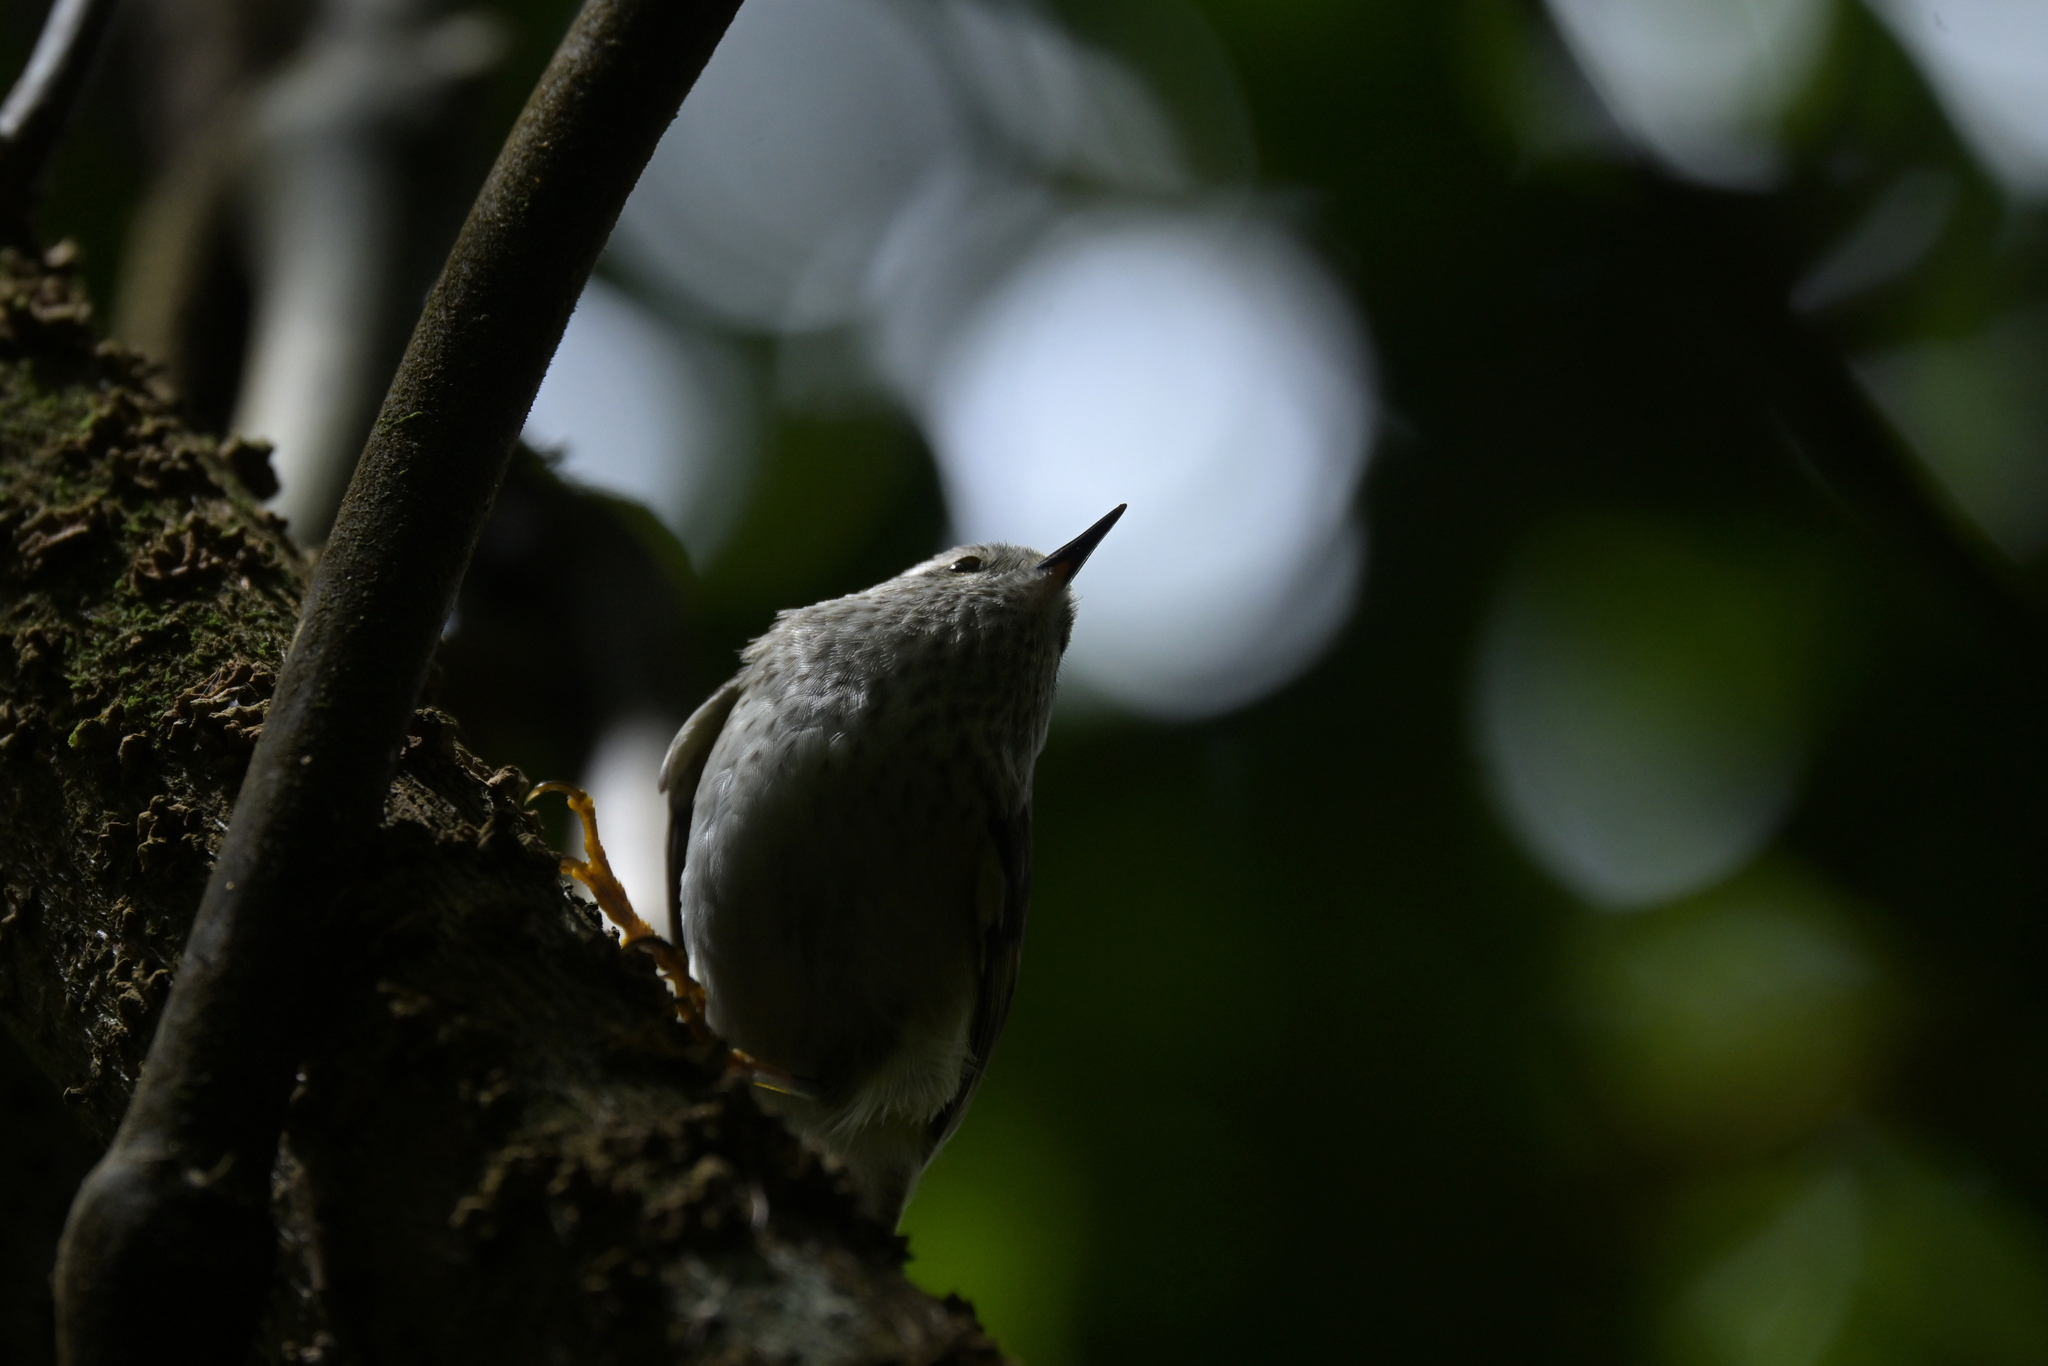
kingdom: Animalia
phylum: Chordata
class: Aves
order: Passeriformes
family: Acanthisittidae
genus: Acanthisitta
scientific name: Acanthisitta chloris
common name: Rifleman
